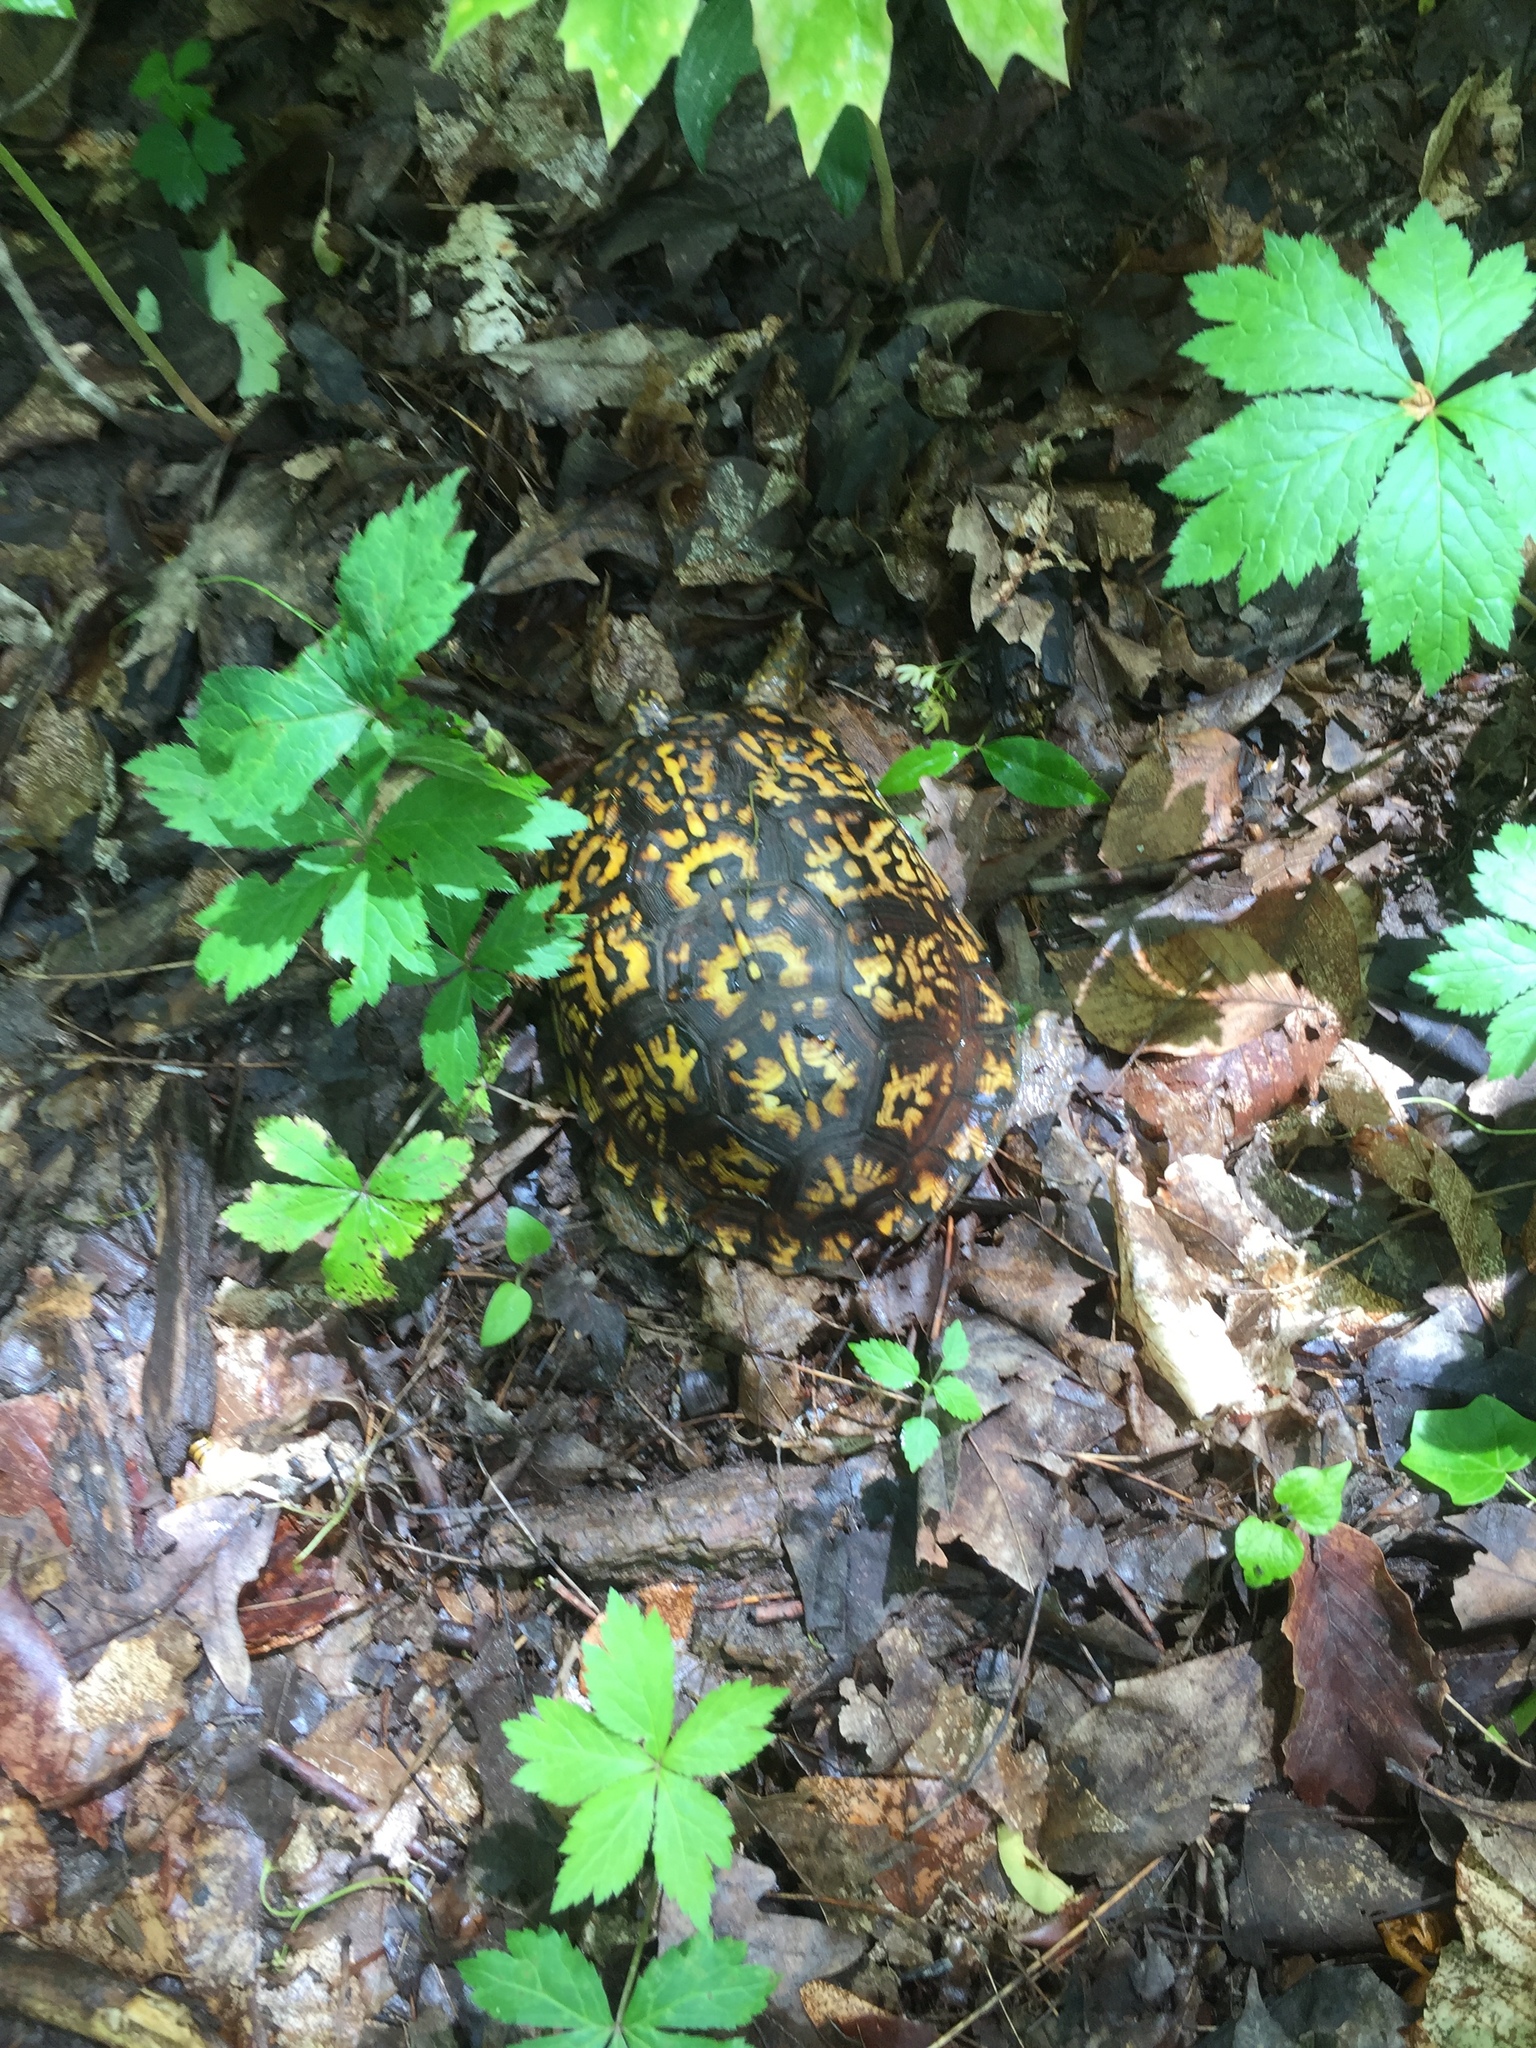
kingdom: Animalia
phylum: Chordata
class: Testudines
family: Emydidae
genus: Terrapene
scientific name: Terrapene carolina
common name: Common box turtle
